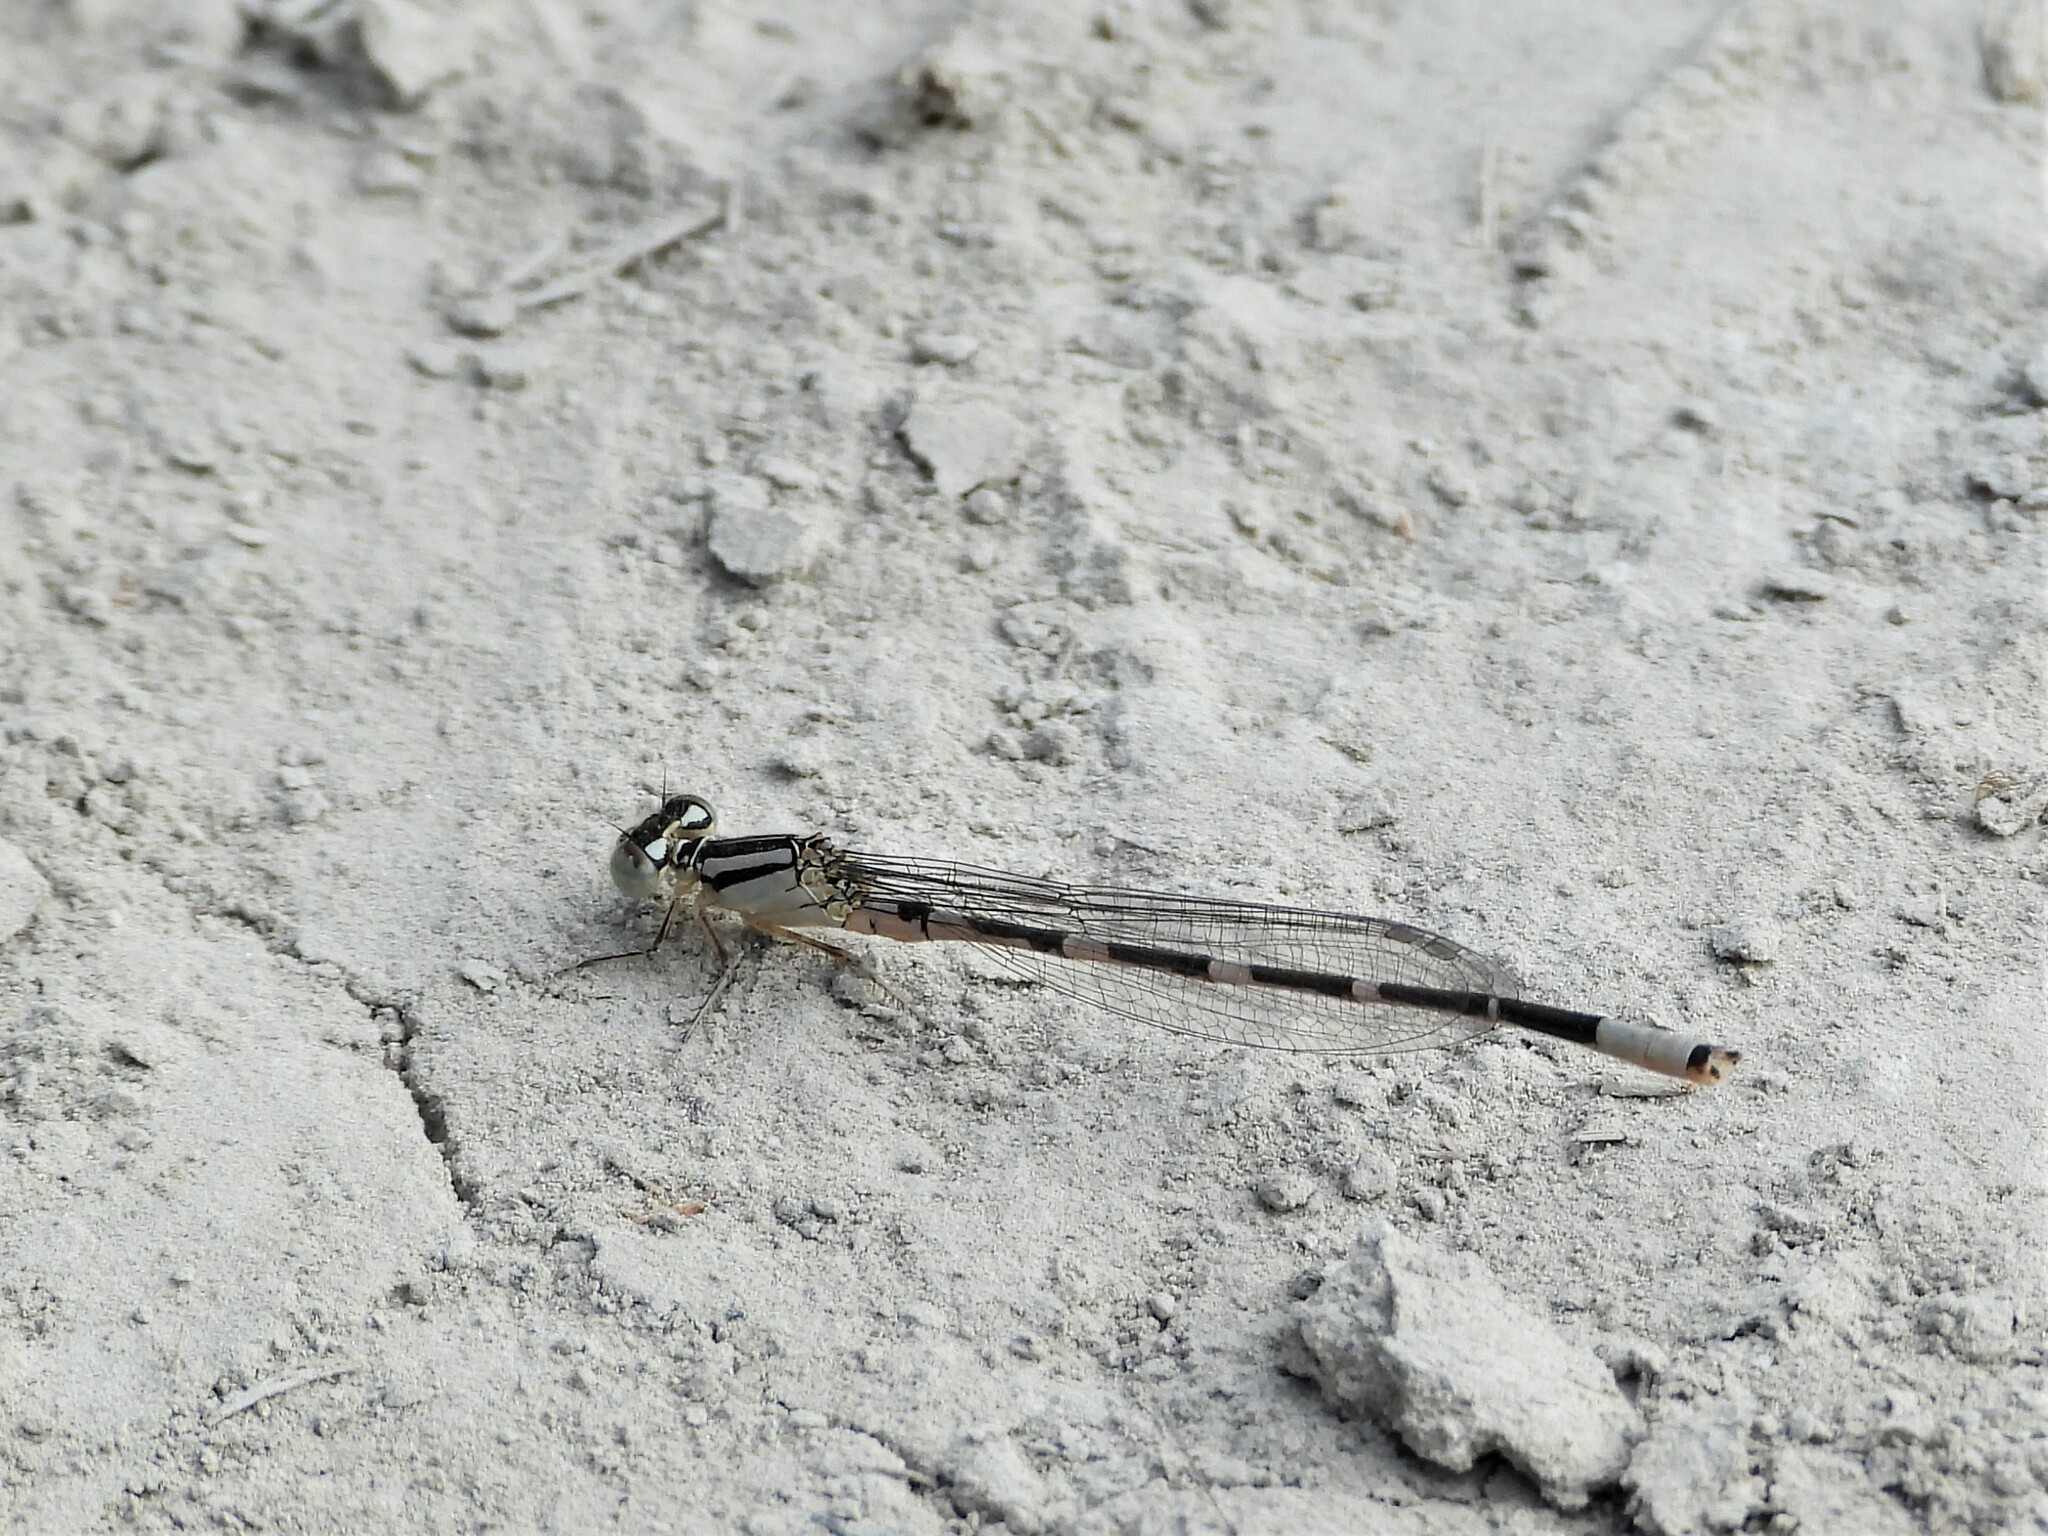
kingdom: Animalia
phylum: Arthropoda
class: Insecta
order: Odonata
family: Coenagrionidae
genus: Enallagma
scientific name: Enallagma carunculatum
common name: Tule bluet
